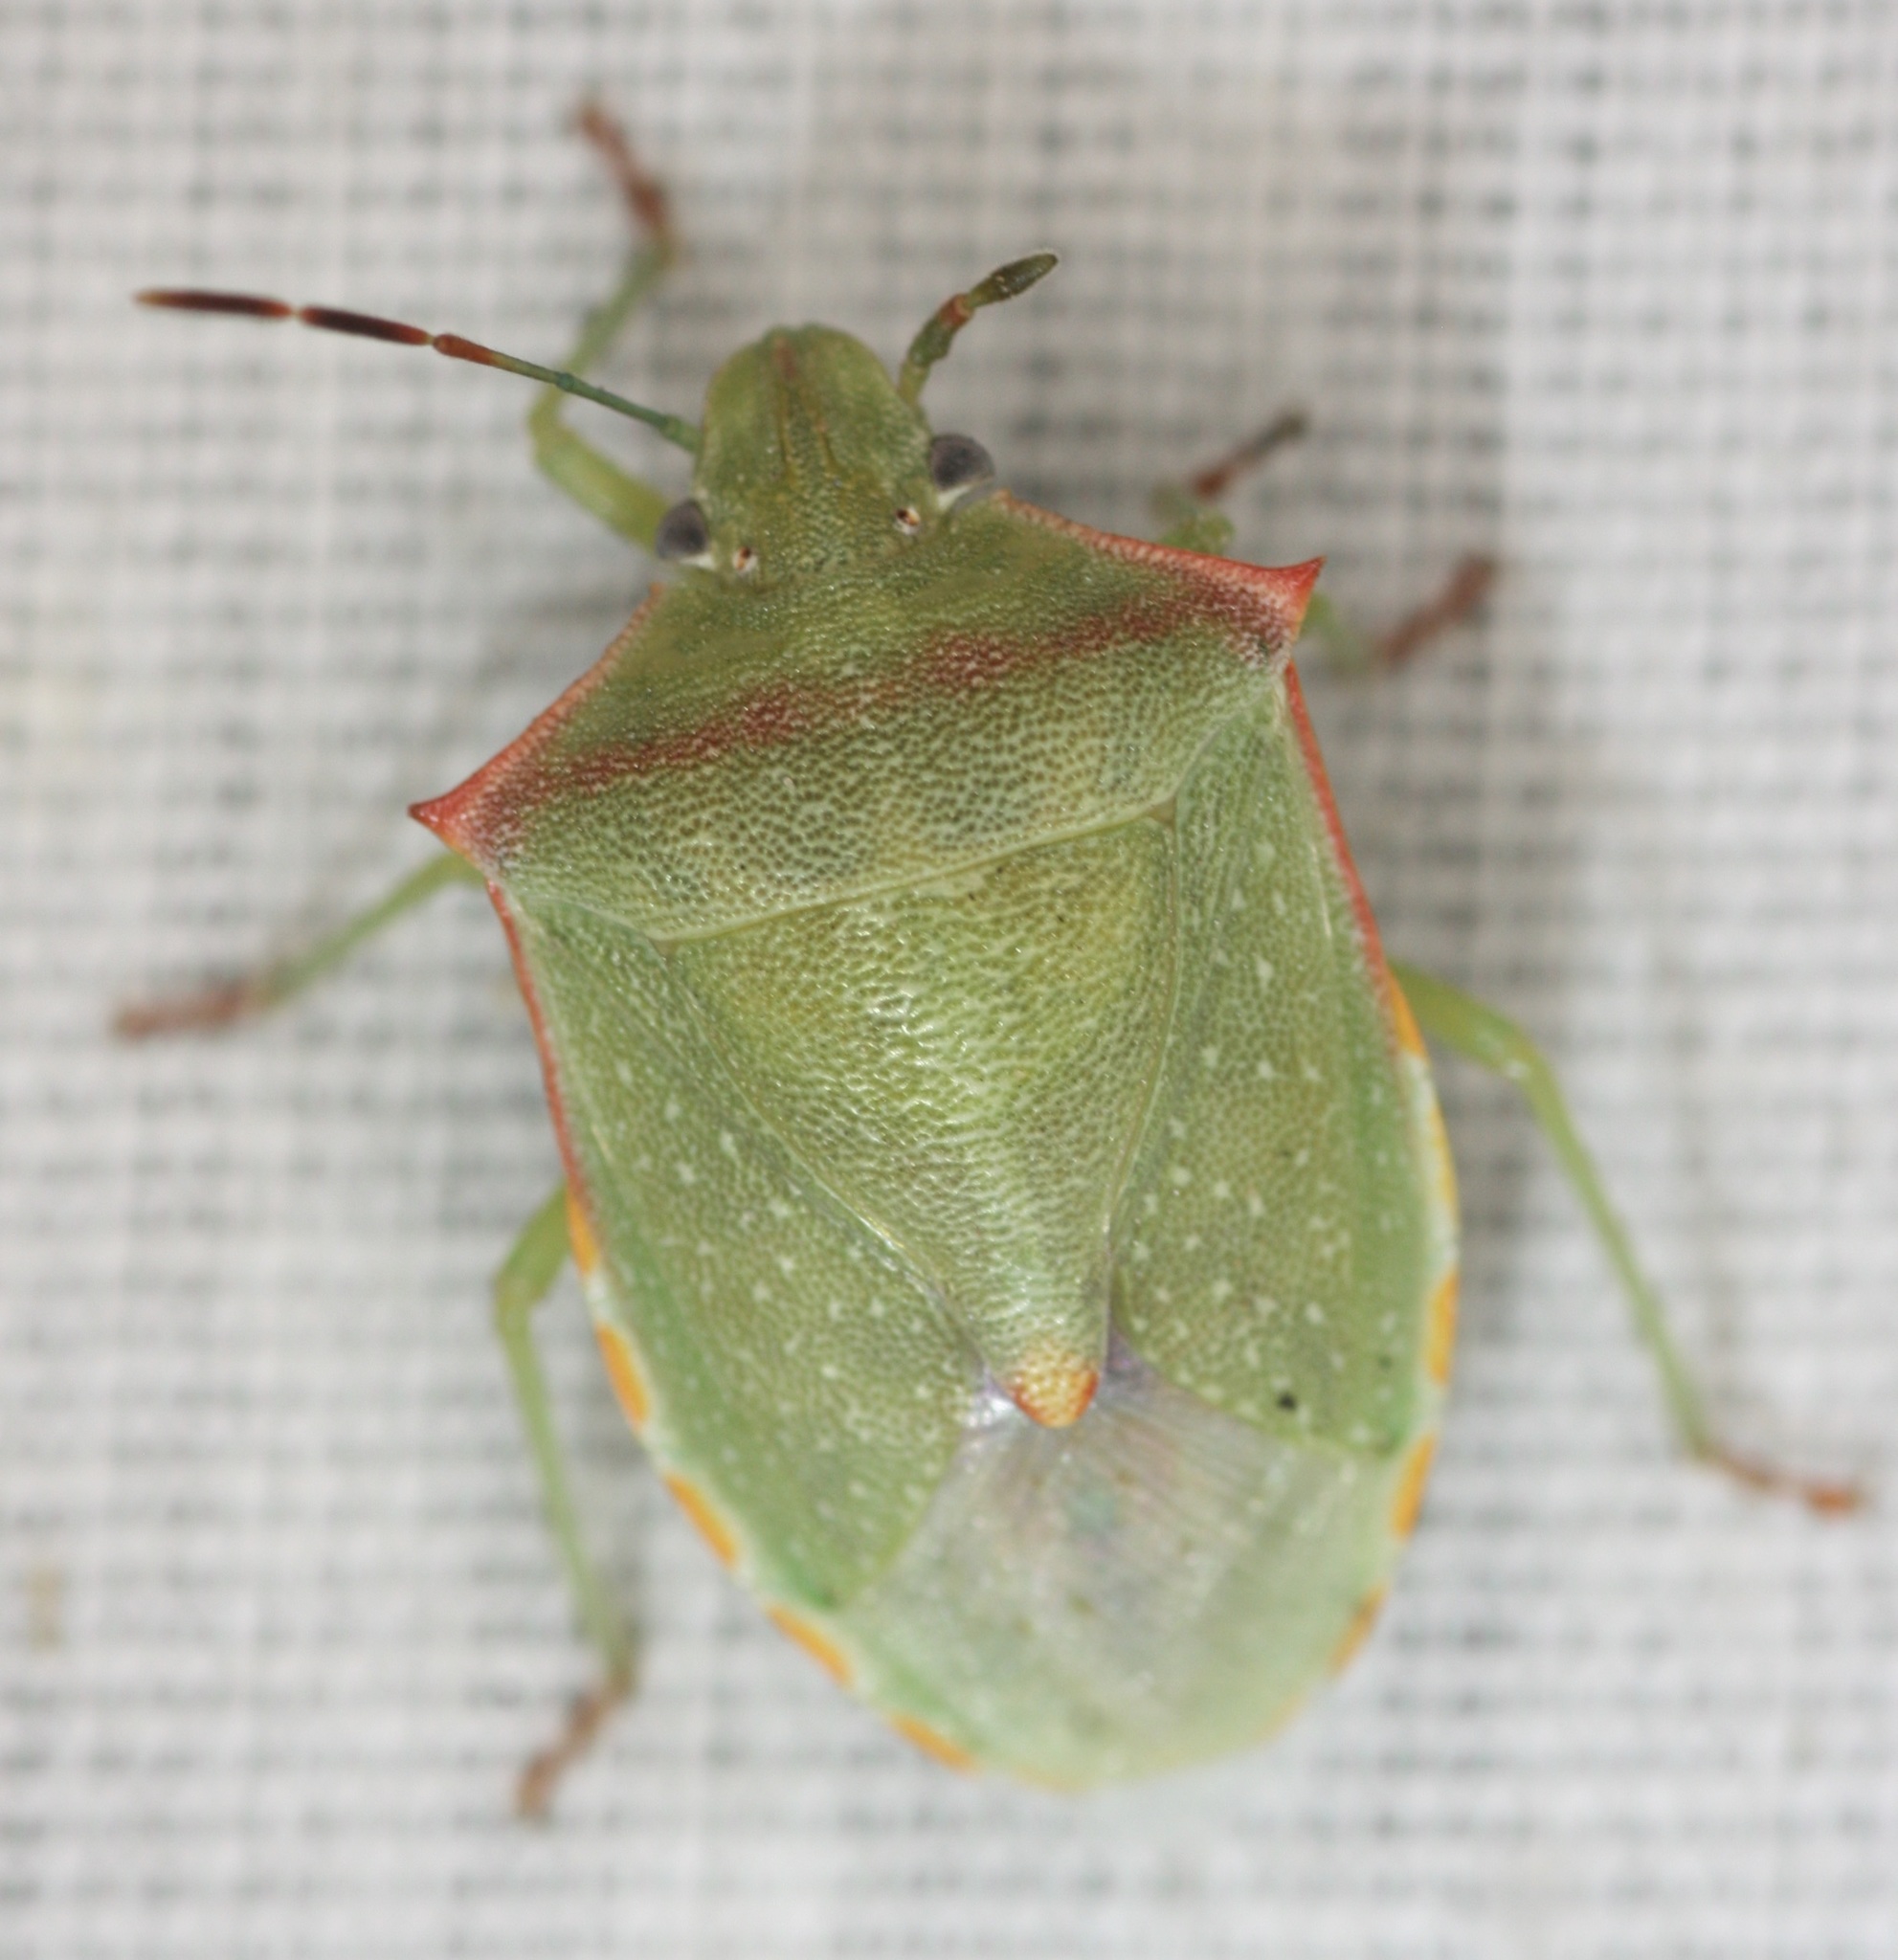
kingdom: Animalia
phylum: Arthropoda
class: Insecta
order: Hemiptera
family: Pentatomidae
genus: Thyanta
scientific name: Thyanta accerra
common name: Stink bug
